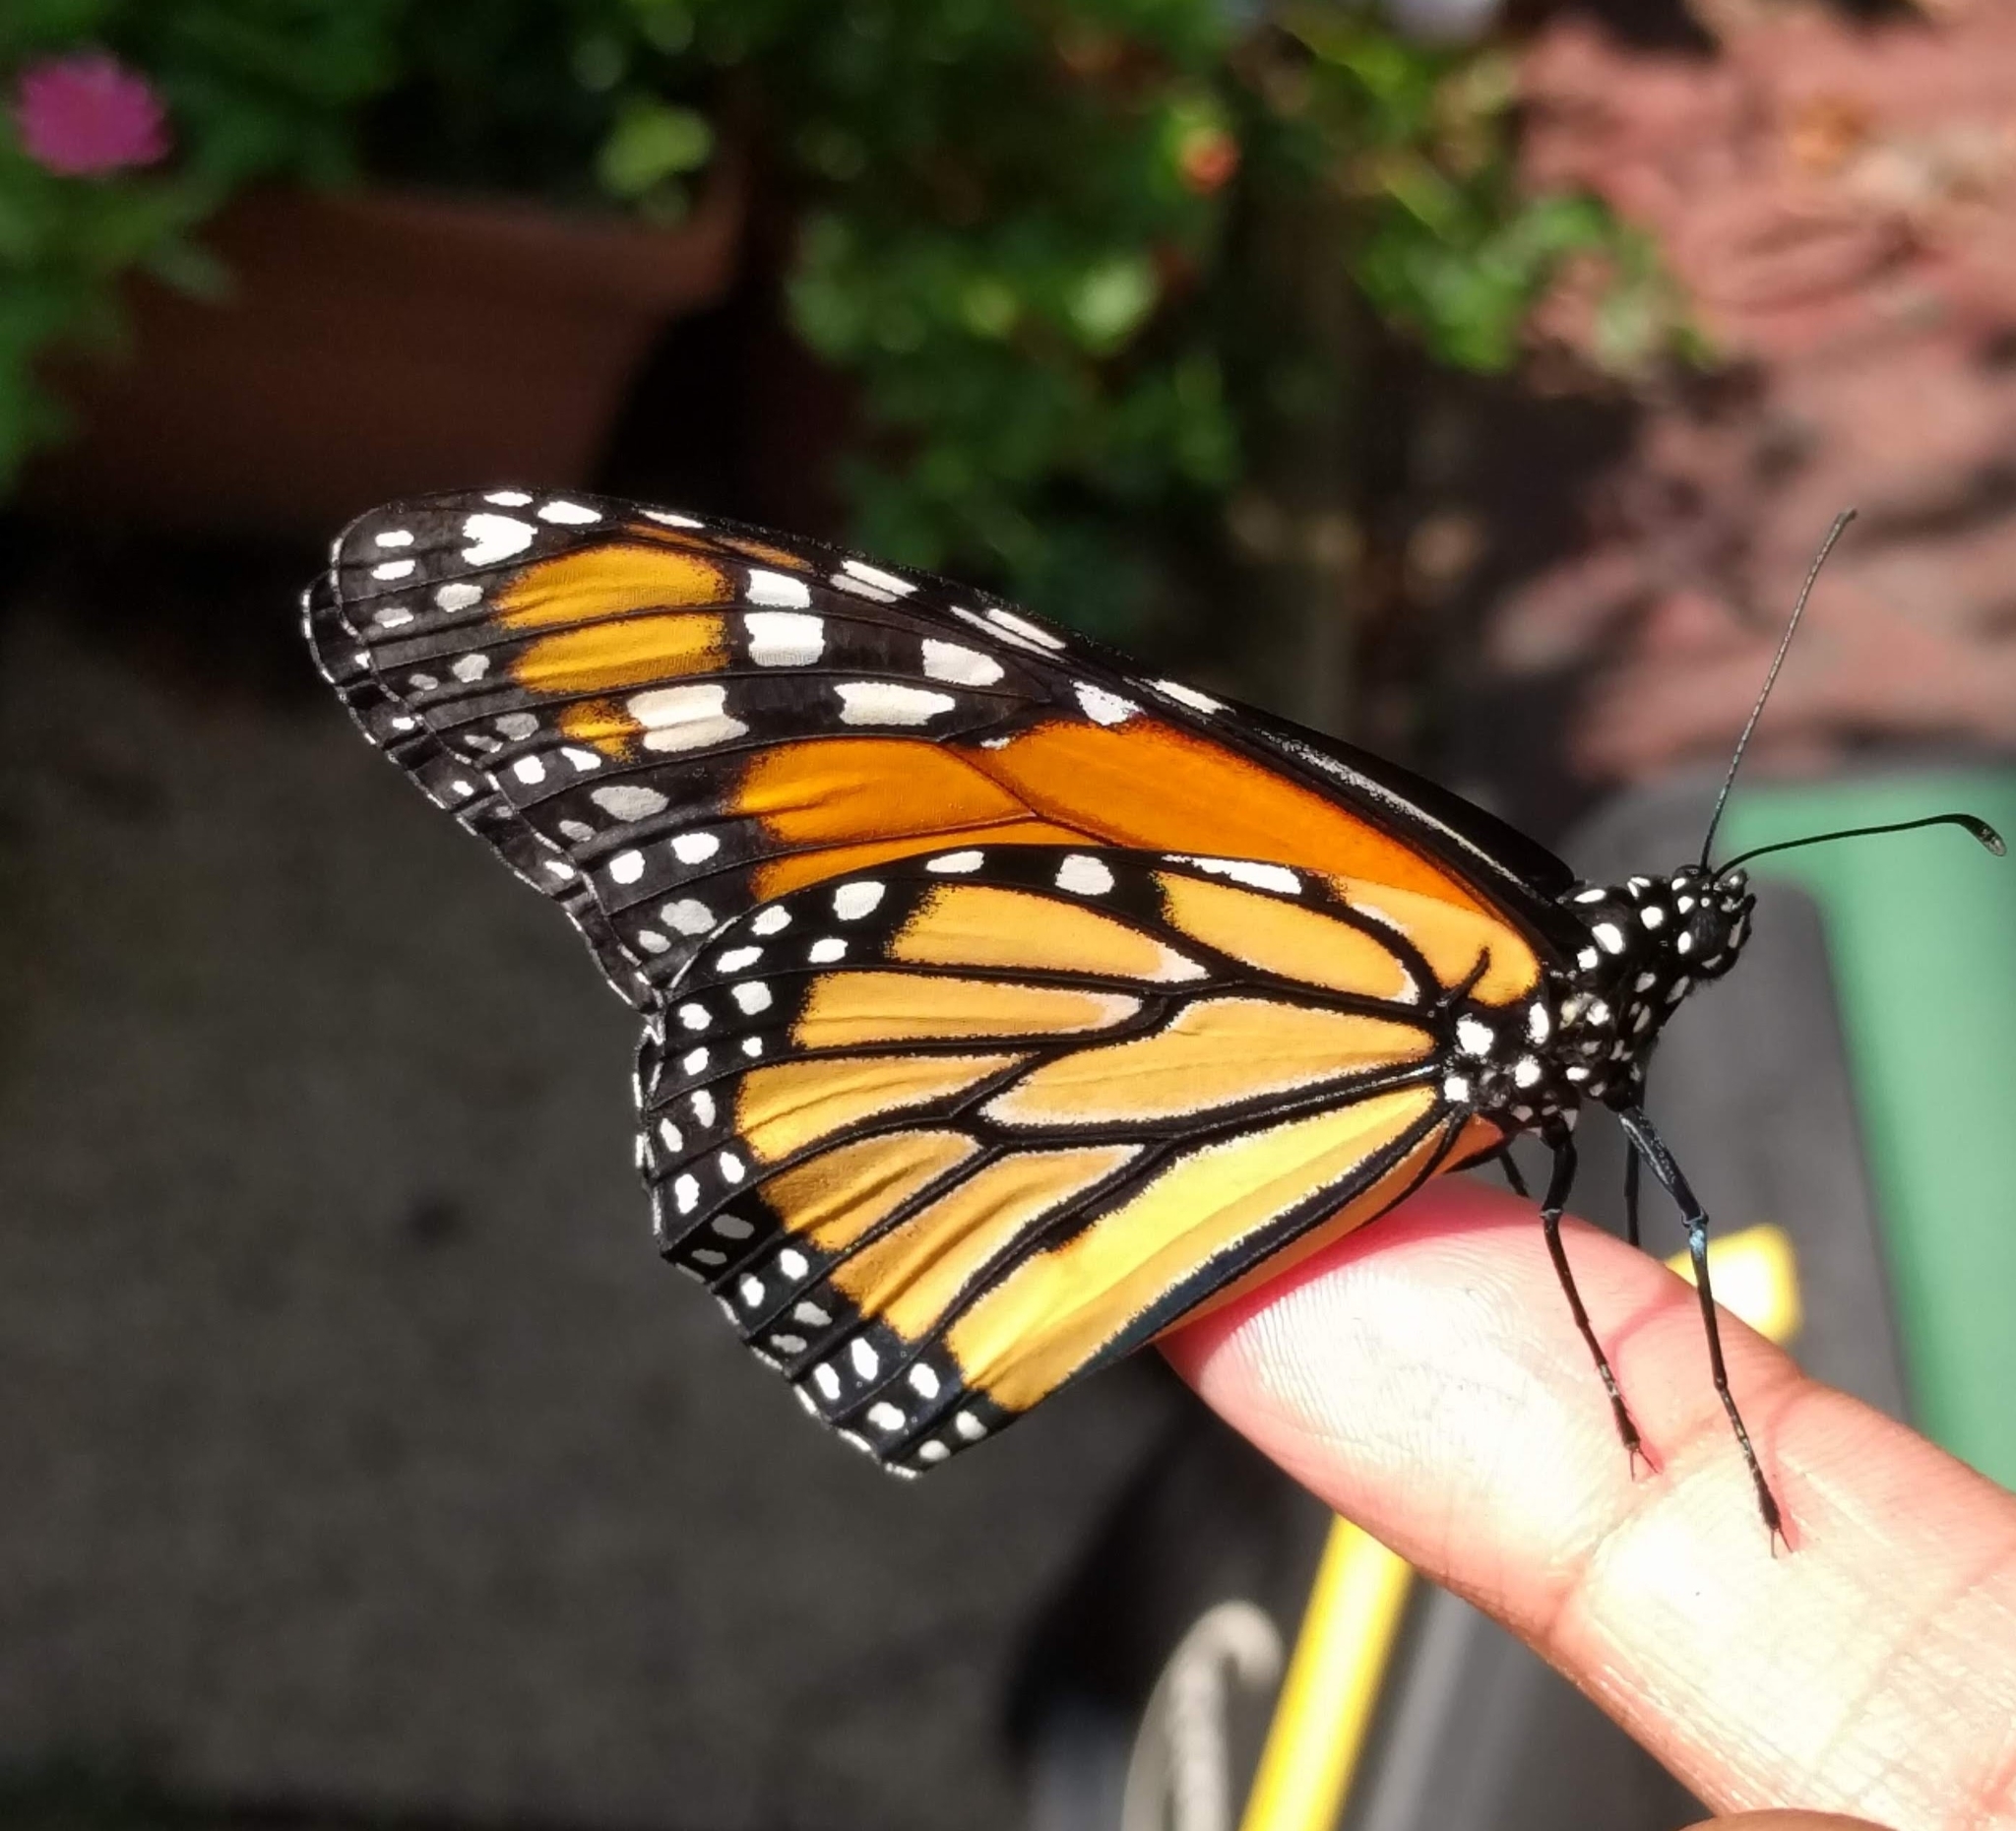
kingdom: Animalia
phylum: Arthropoda
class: Insecta
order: Lepidoptera
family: Nymphalidae
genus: Danaus
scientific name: Danaus plexippus
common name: Monarch
